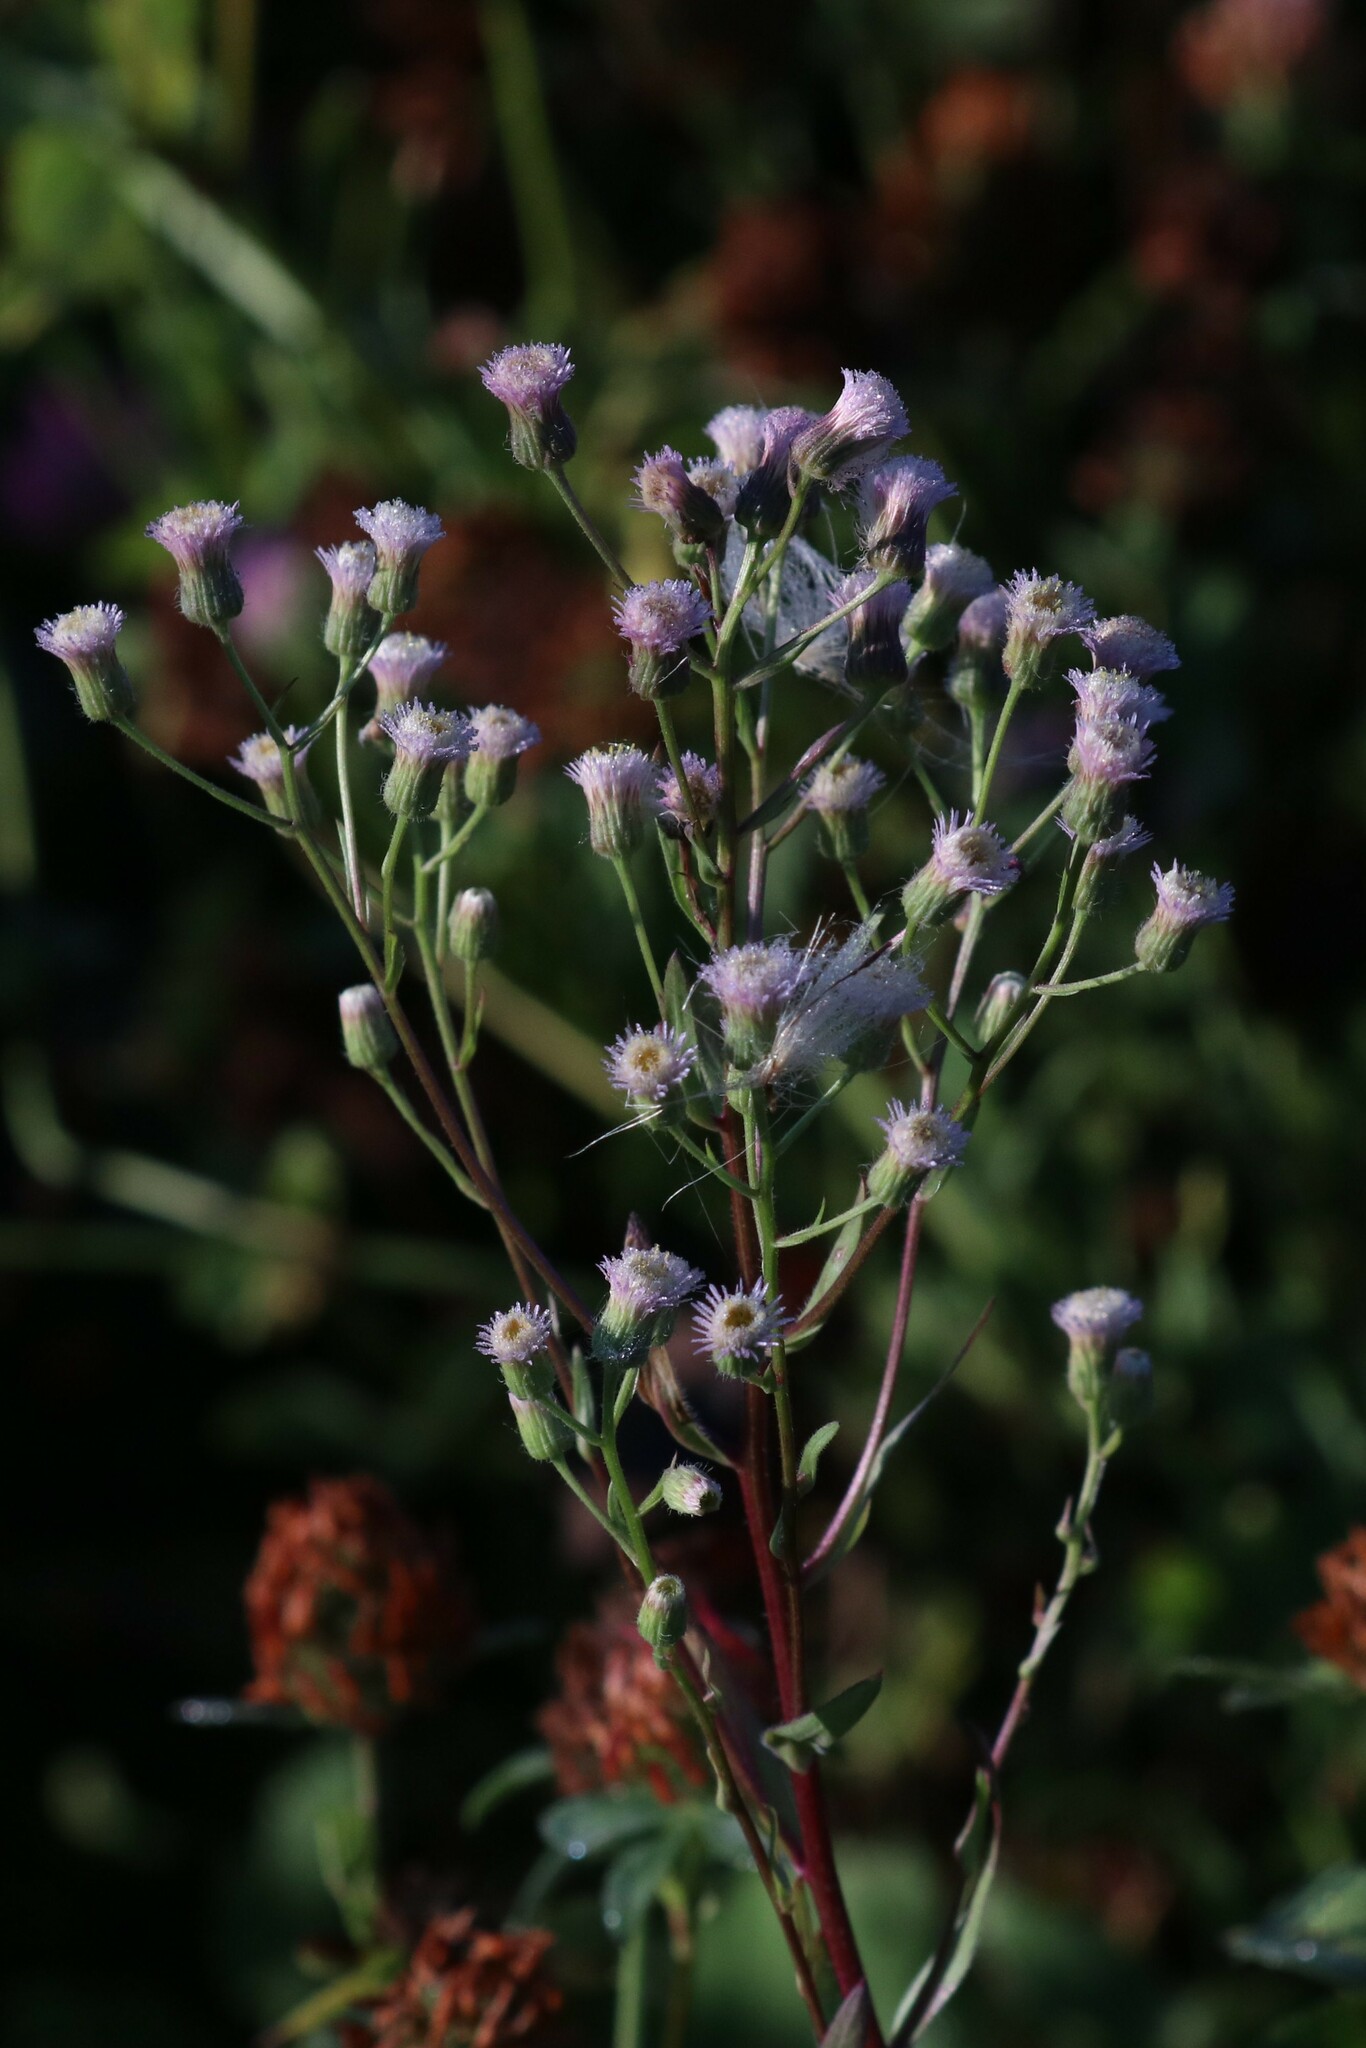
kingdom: Plantae
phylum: Tracheophyta
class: Magnoliopsida
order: Asterales
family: Asteraceae
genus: Erigeron
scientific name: Erigeron acris
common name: Blue fleabane
